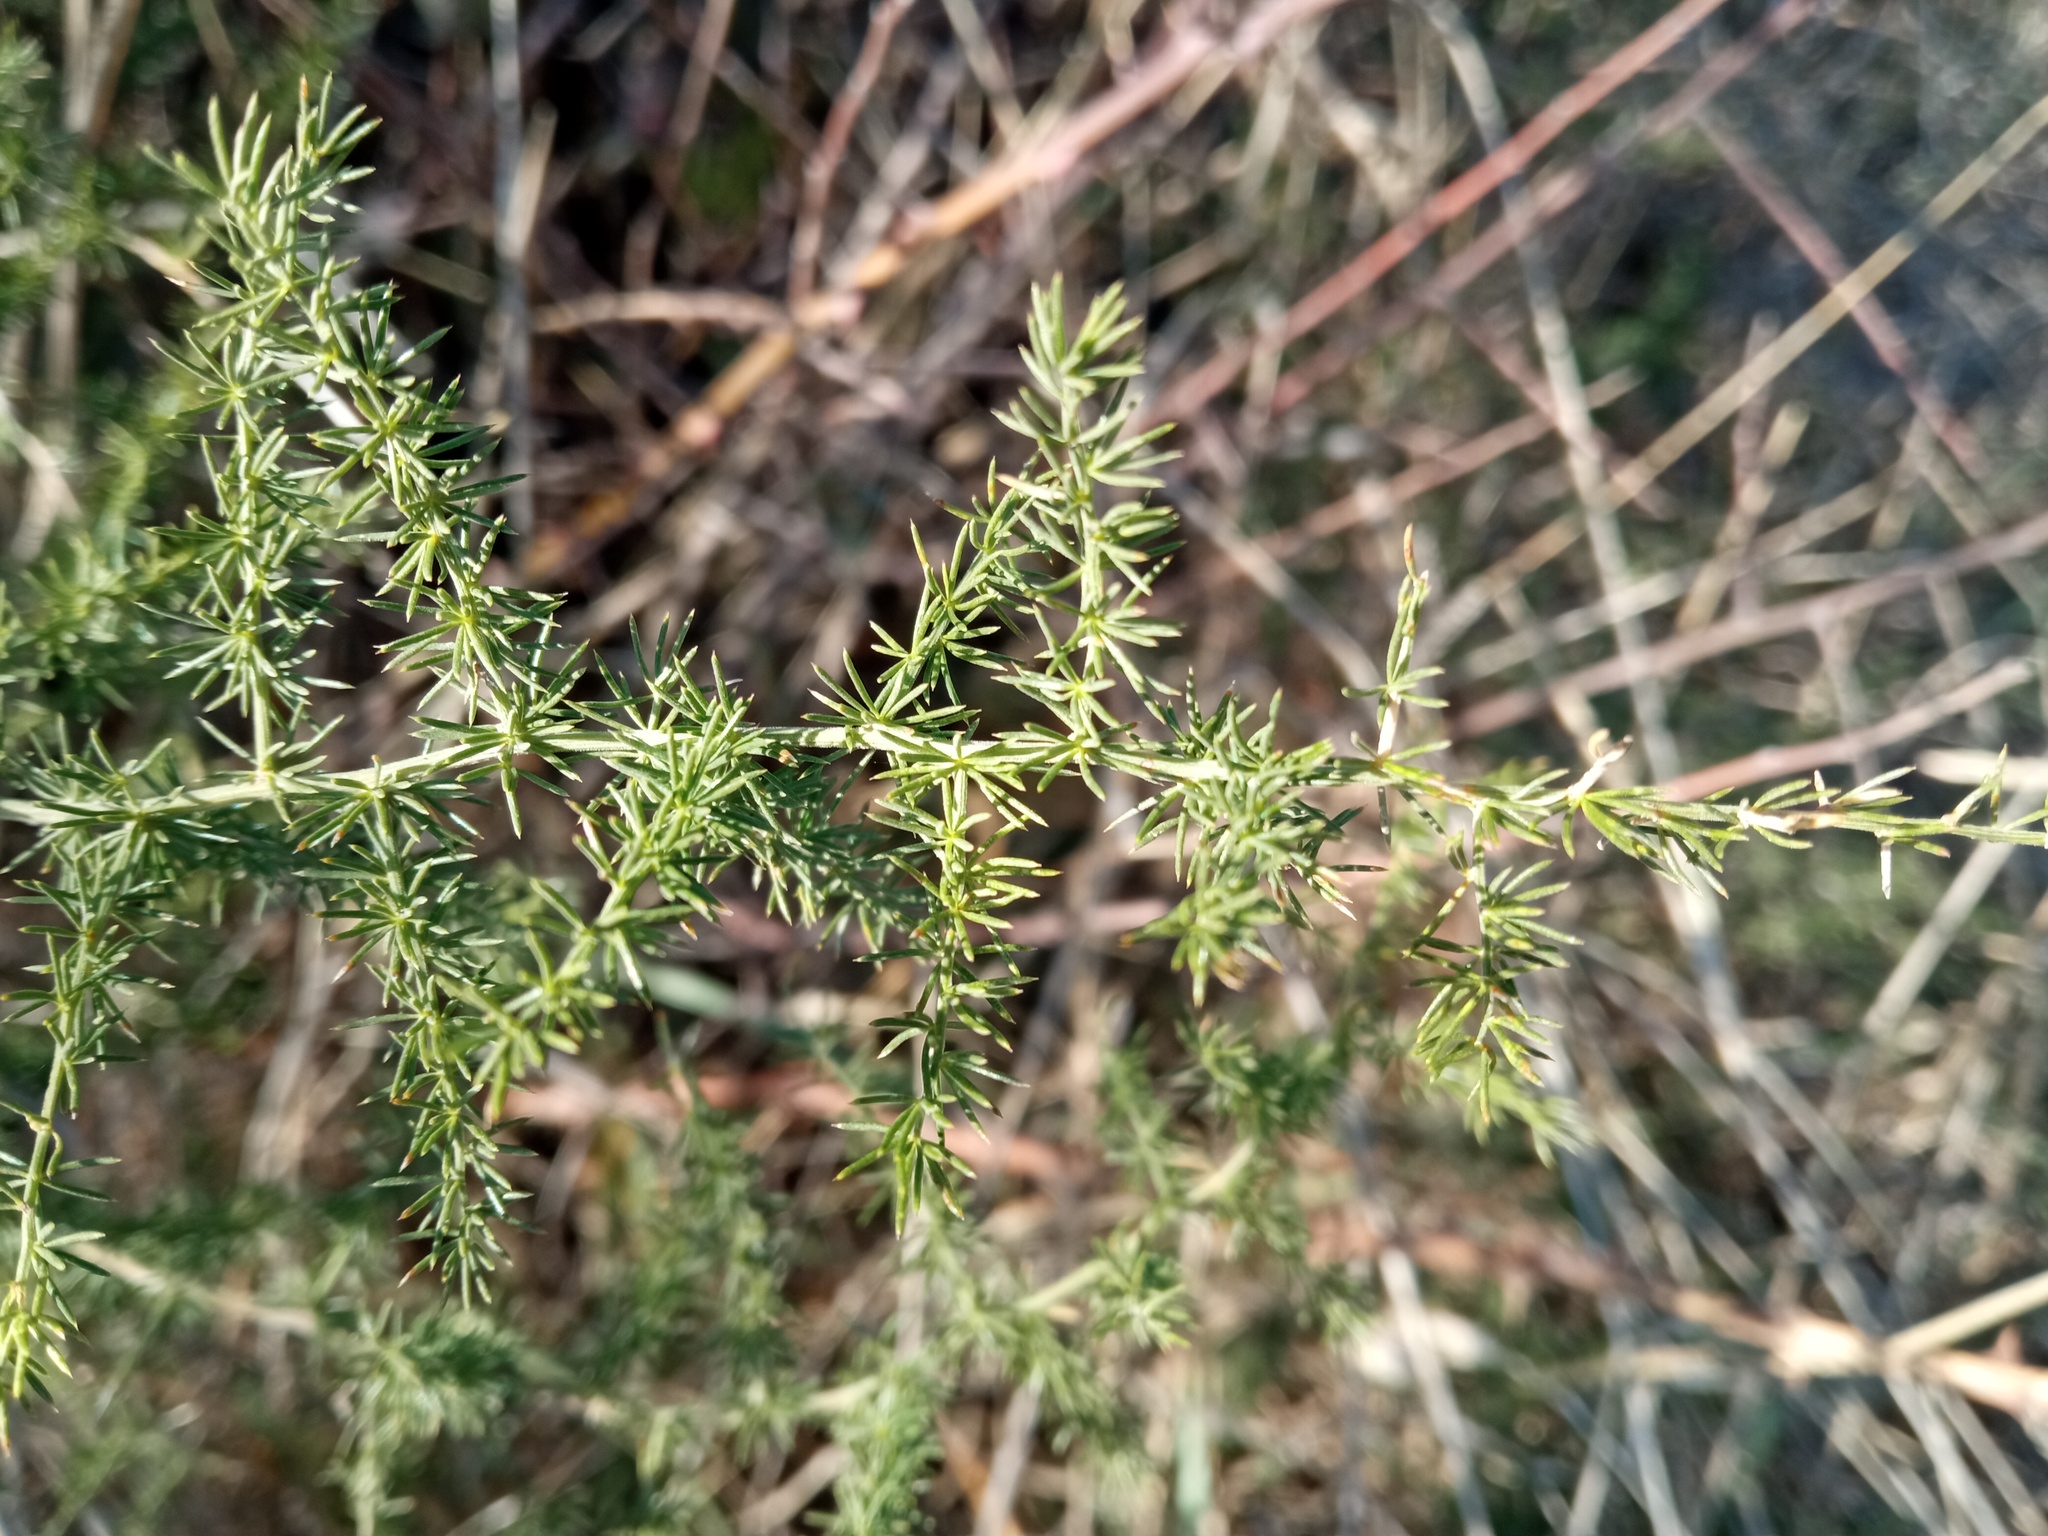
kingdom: Plantae
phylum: Tracheophyta
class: Liliopsida
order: Asparagales
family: Asparagaceae
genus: Asparagus
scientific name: Asparagus acutifolius
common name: Wild asparagus
